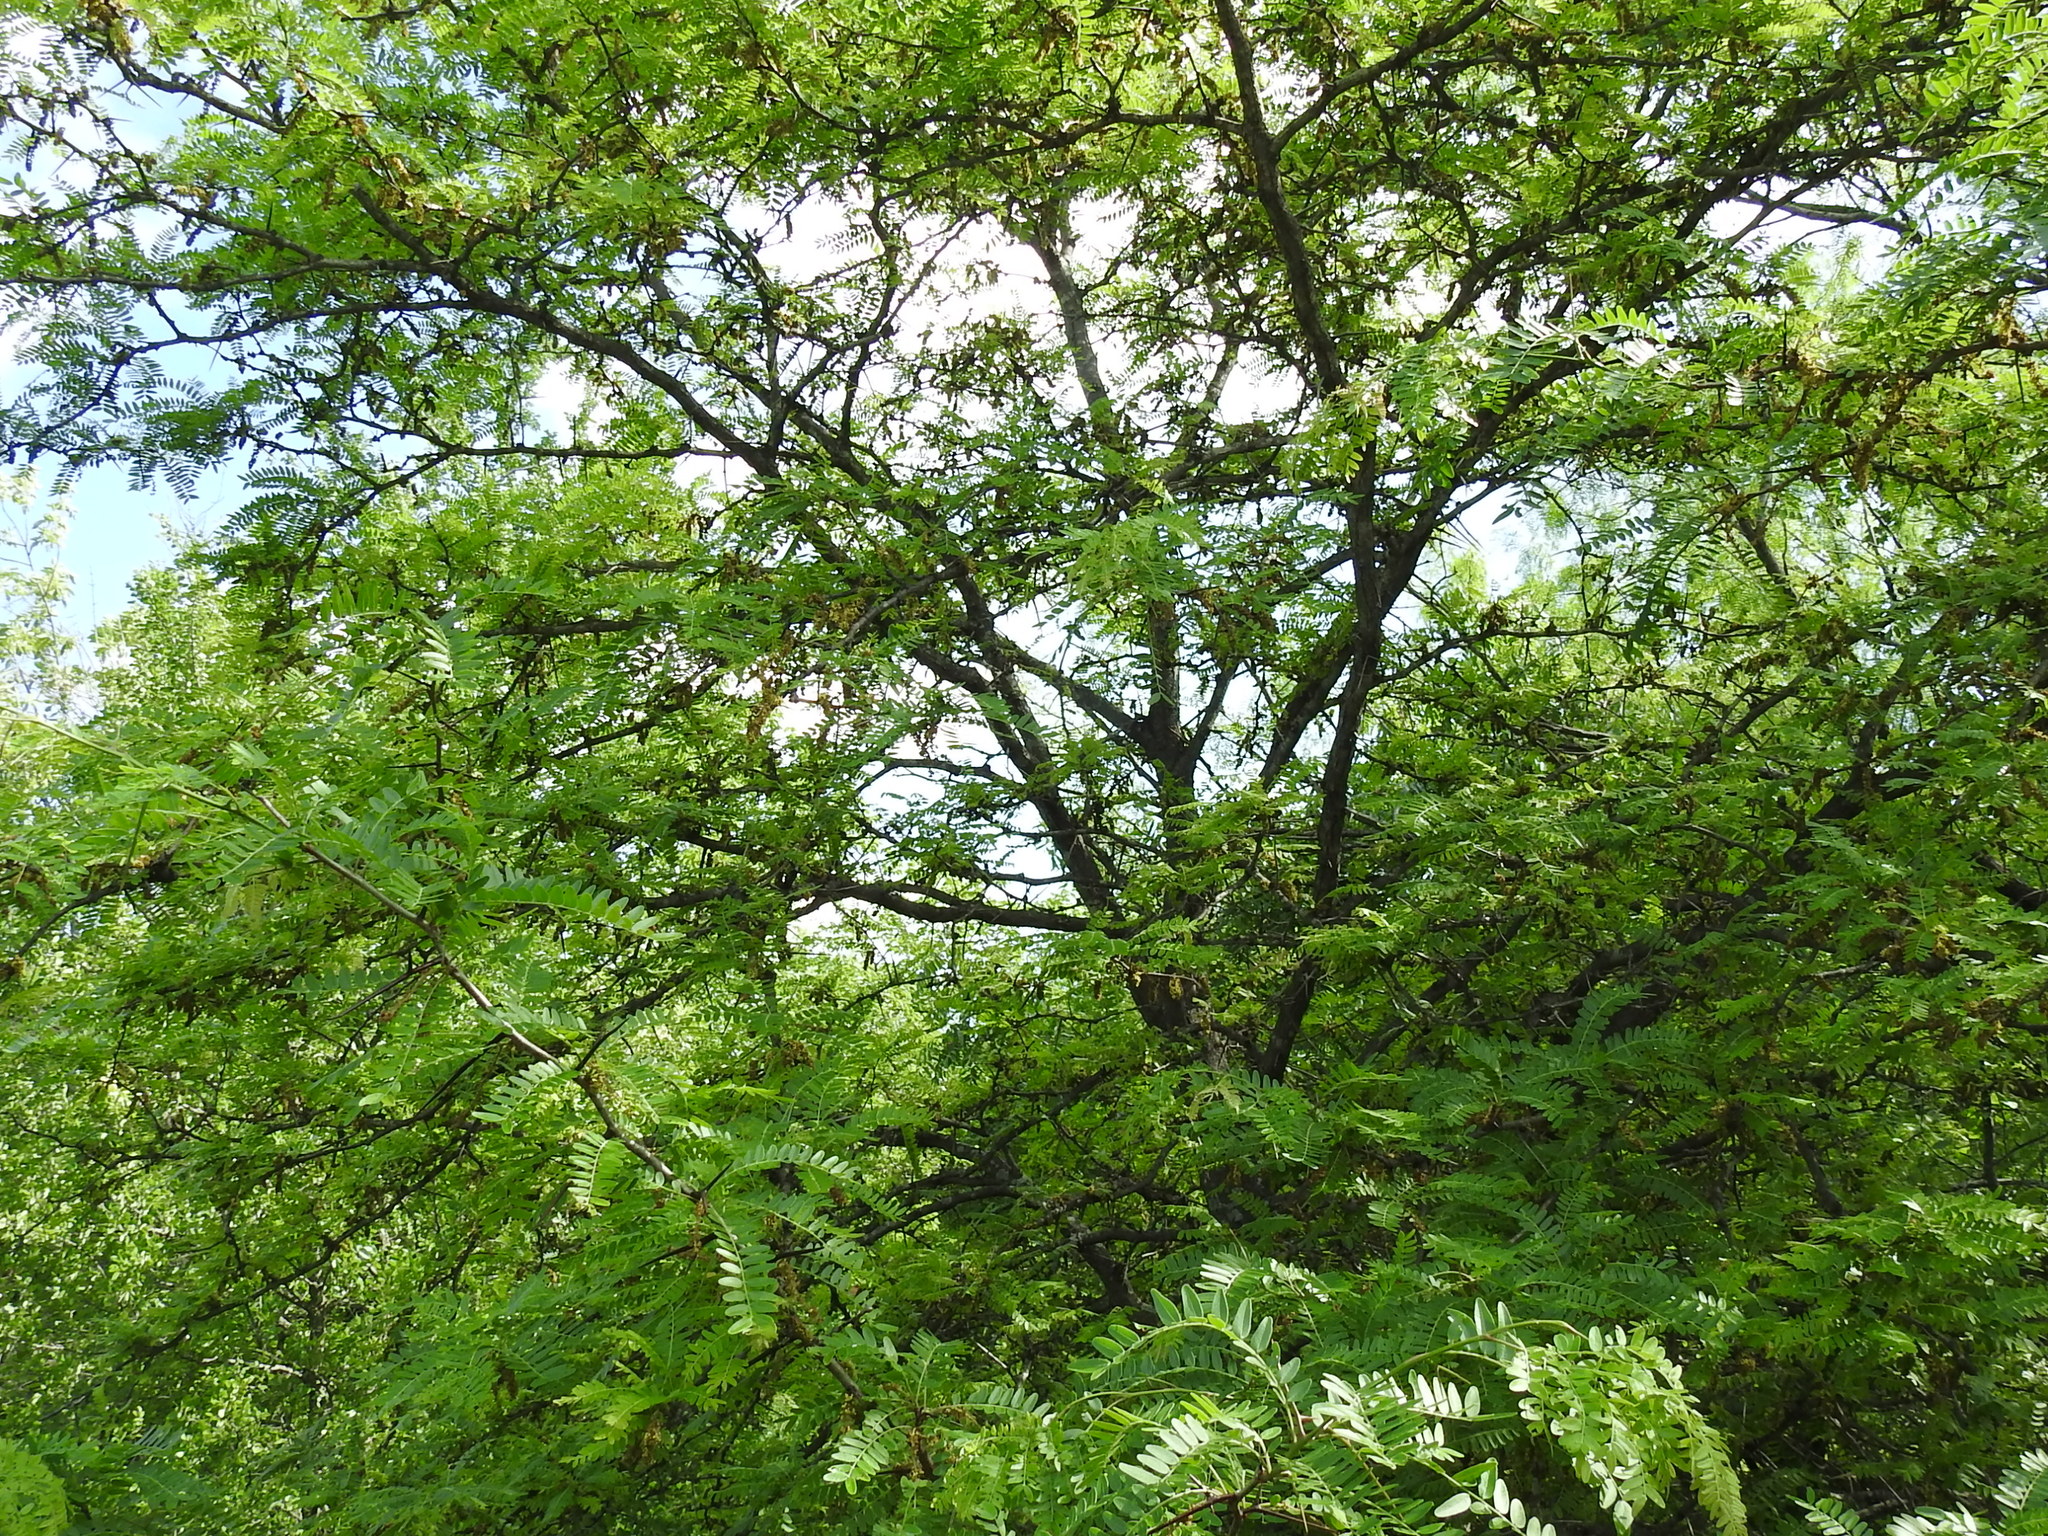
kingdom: Plantae
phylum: Tracheophyta
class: Magnoliopsida
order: Fabales
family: Fabaceae
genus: Gleditsia
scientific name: Gleditsia triacanthos
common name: Common honeylocust
